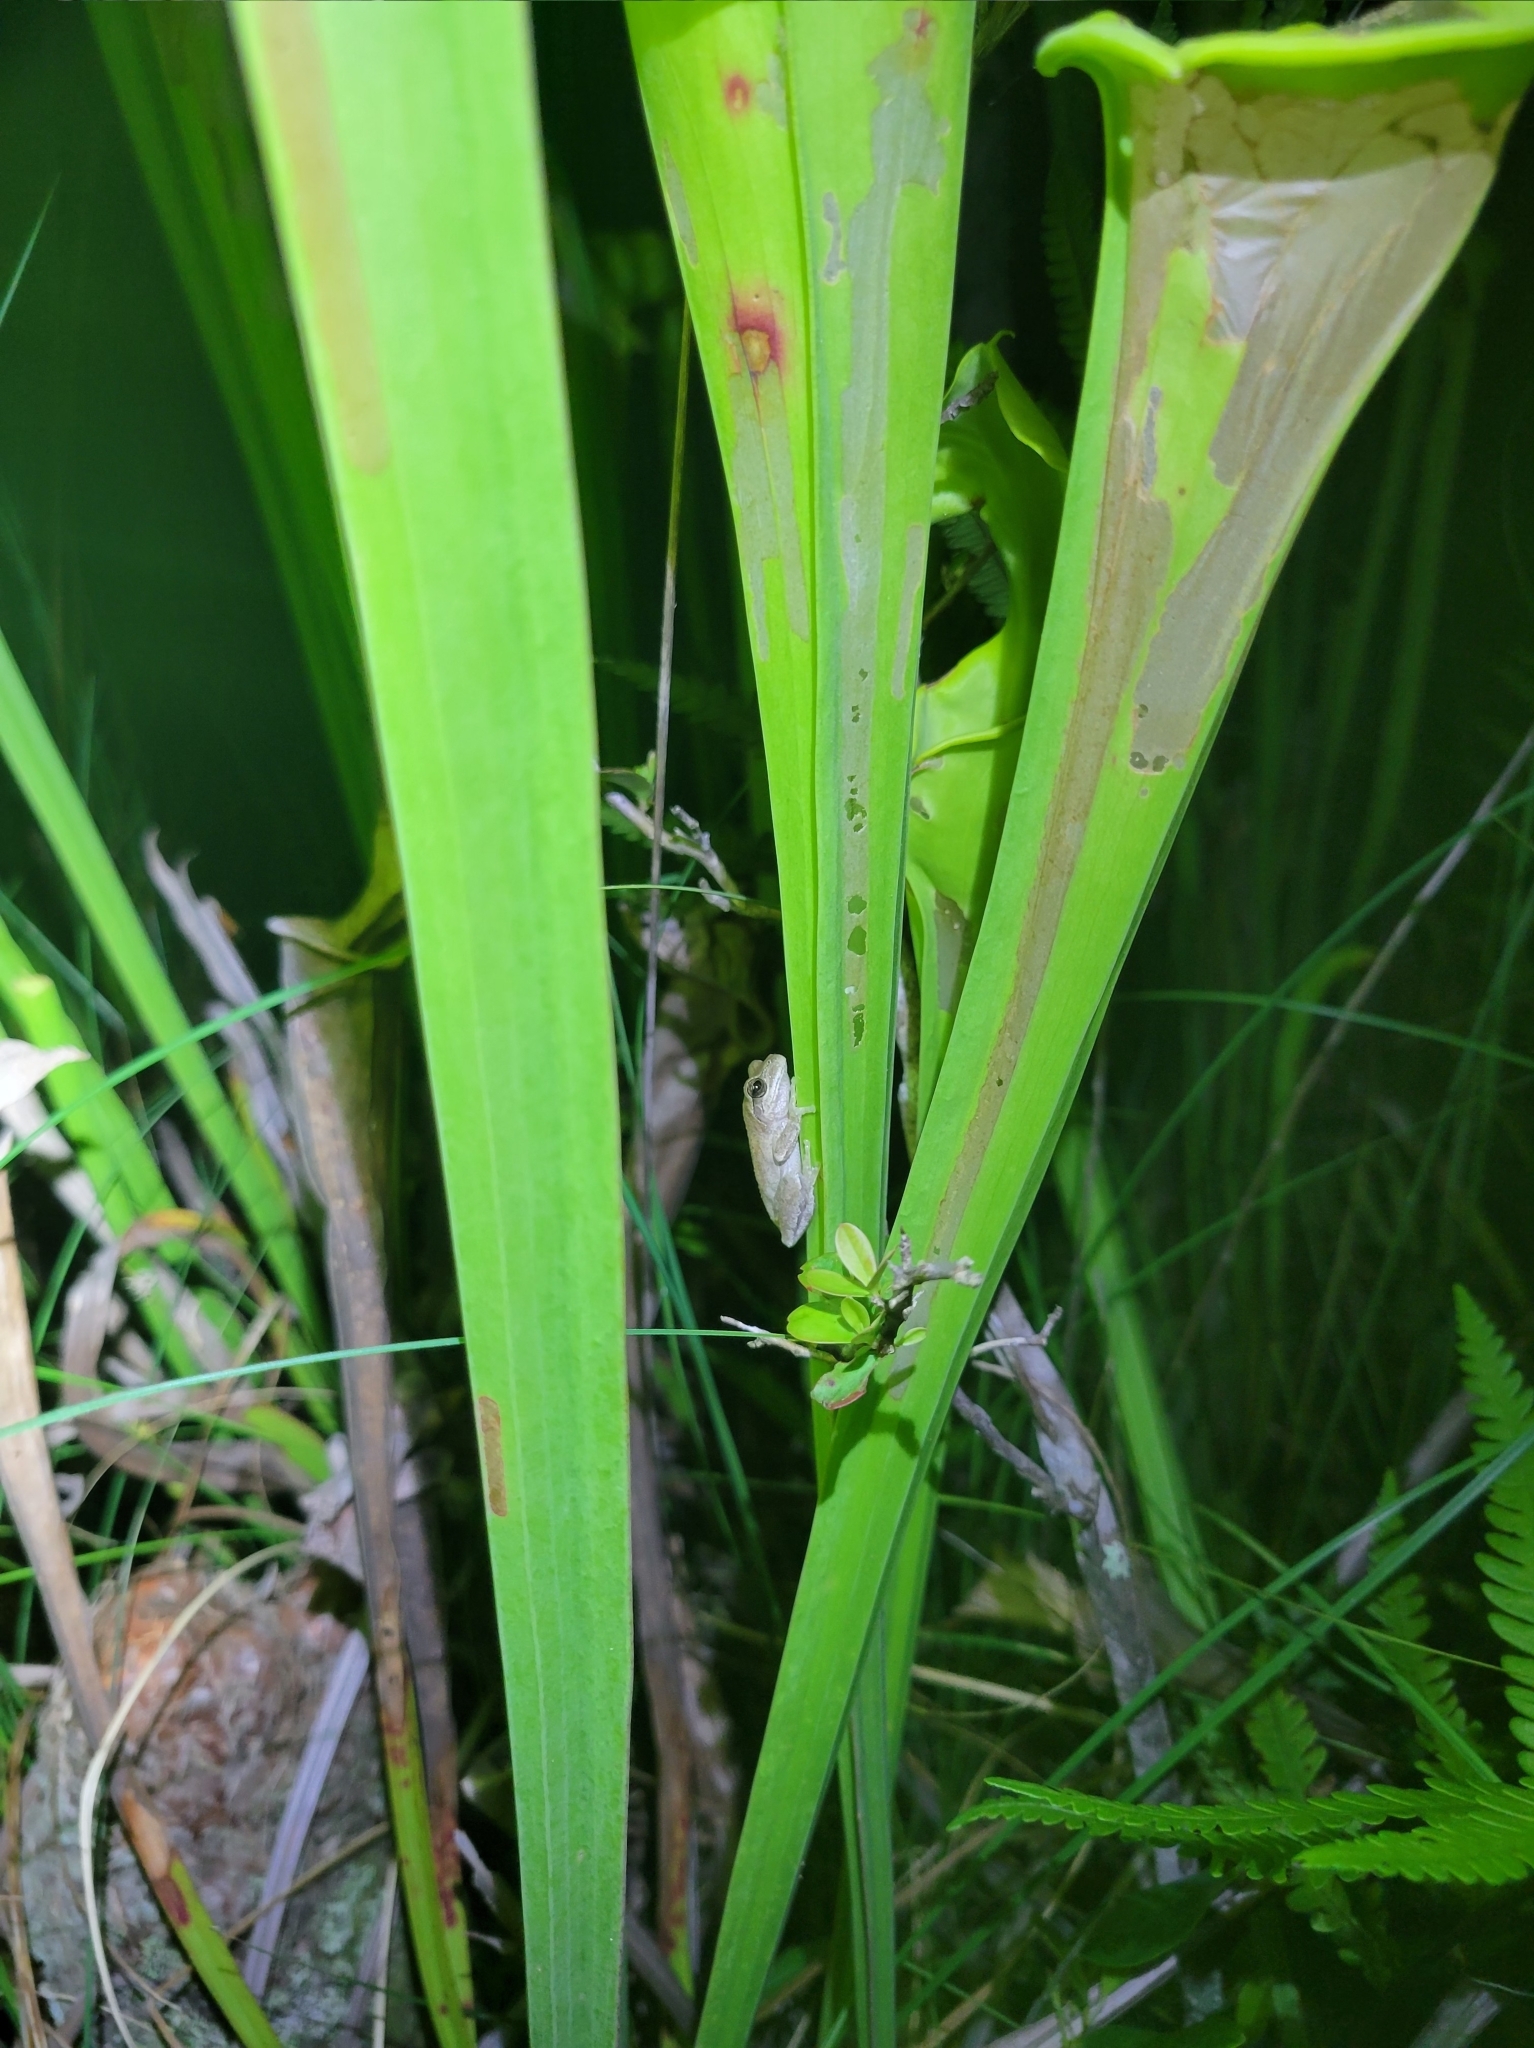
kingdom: Animalia
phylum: Chordata
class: Amphibia
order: Anura
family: Hylidae
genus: Hyla
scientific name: Hyla femoralis
